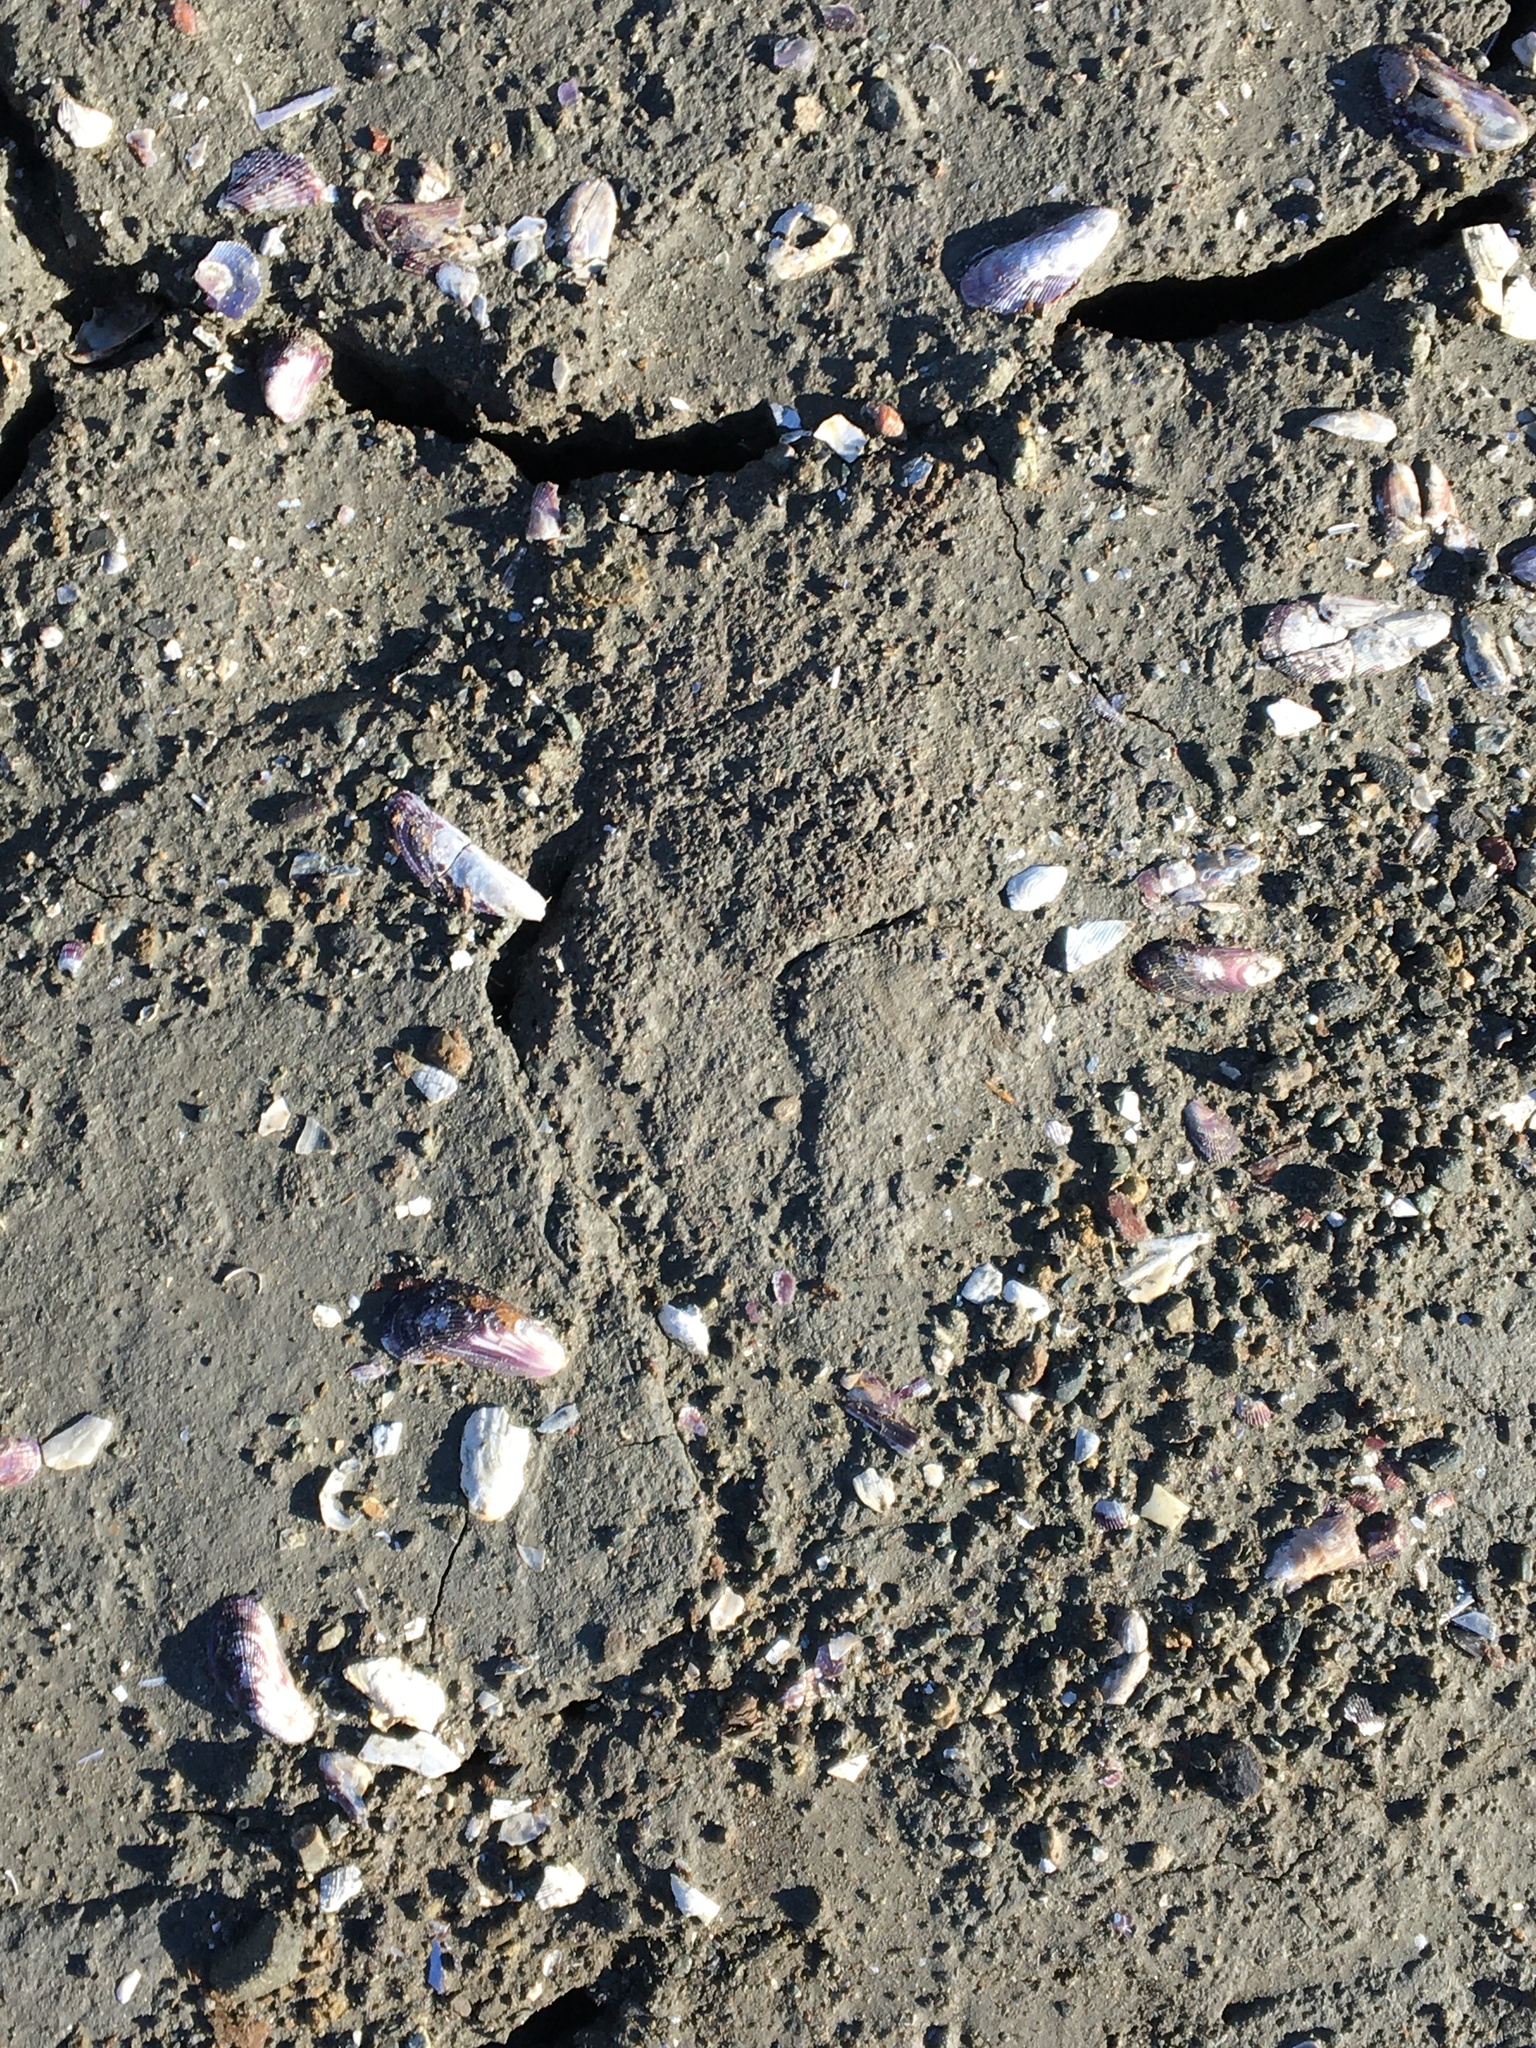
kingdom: Animalia
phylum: Mollusca
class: Bivalvia
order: Mytilida
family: Mytilidae
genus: Geukensia
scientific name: Geukensia demissa
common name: Ribbed mussel
